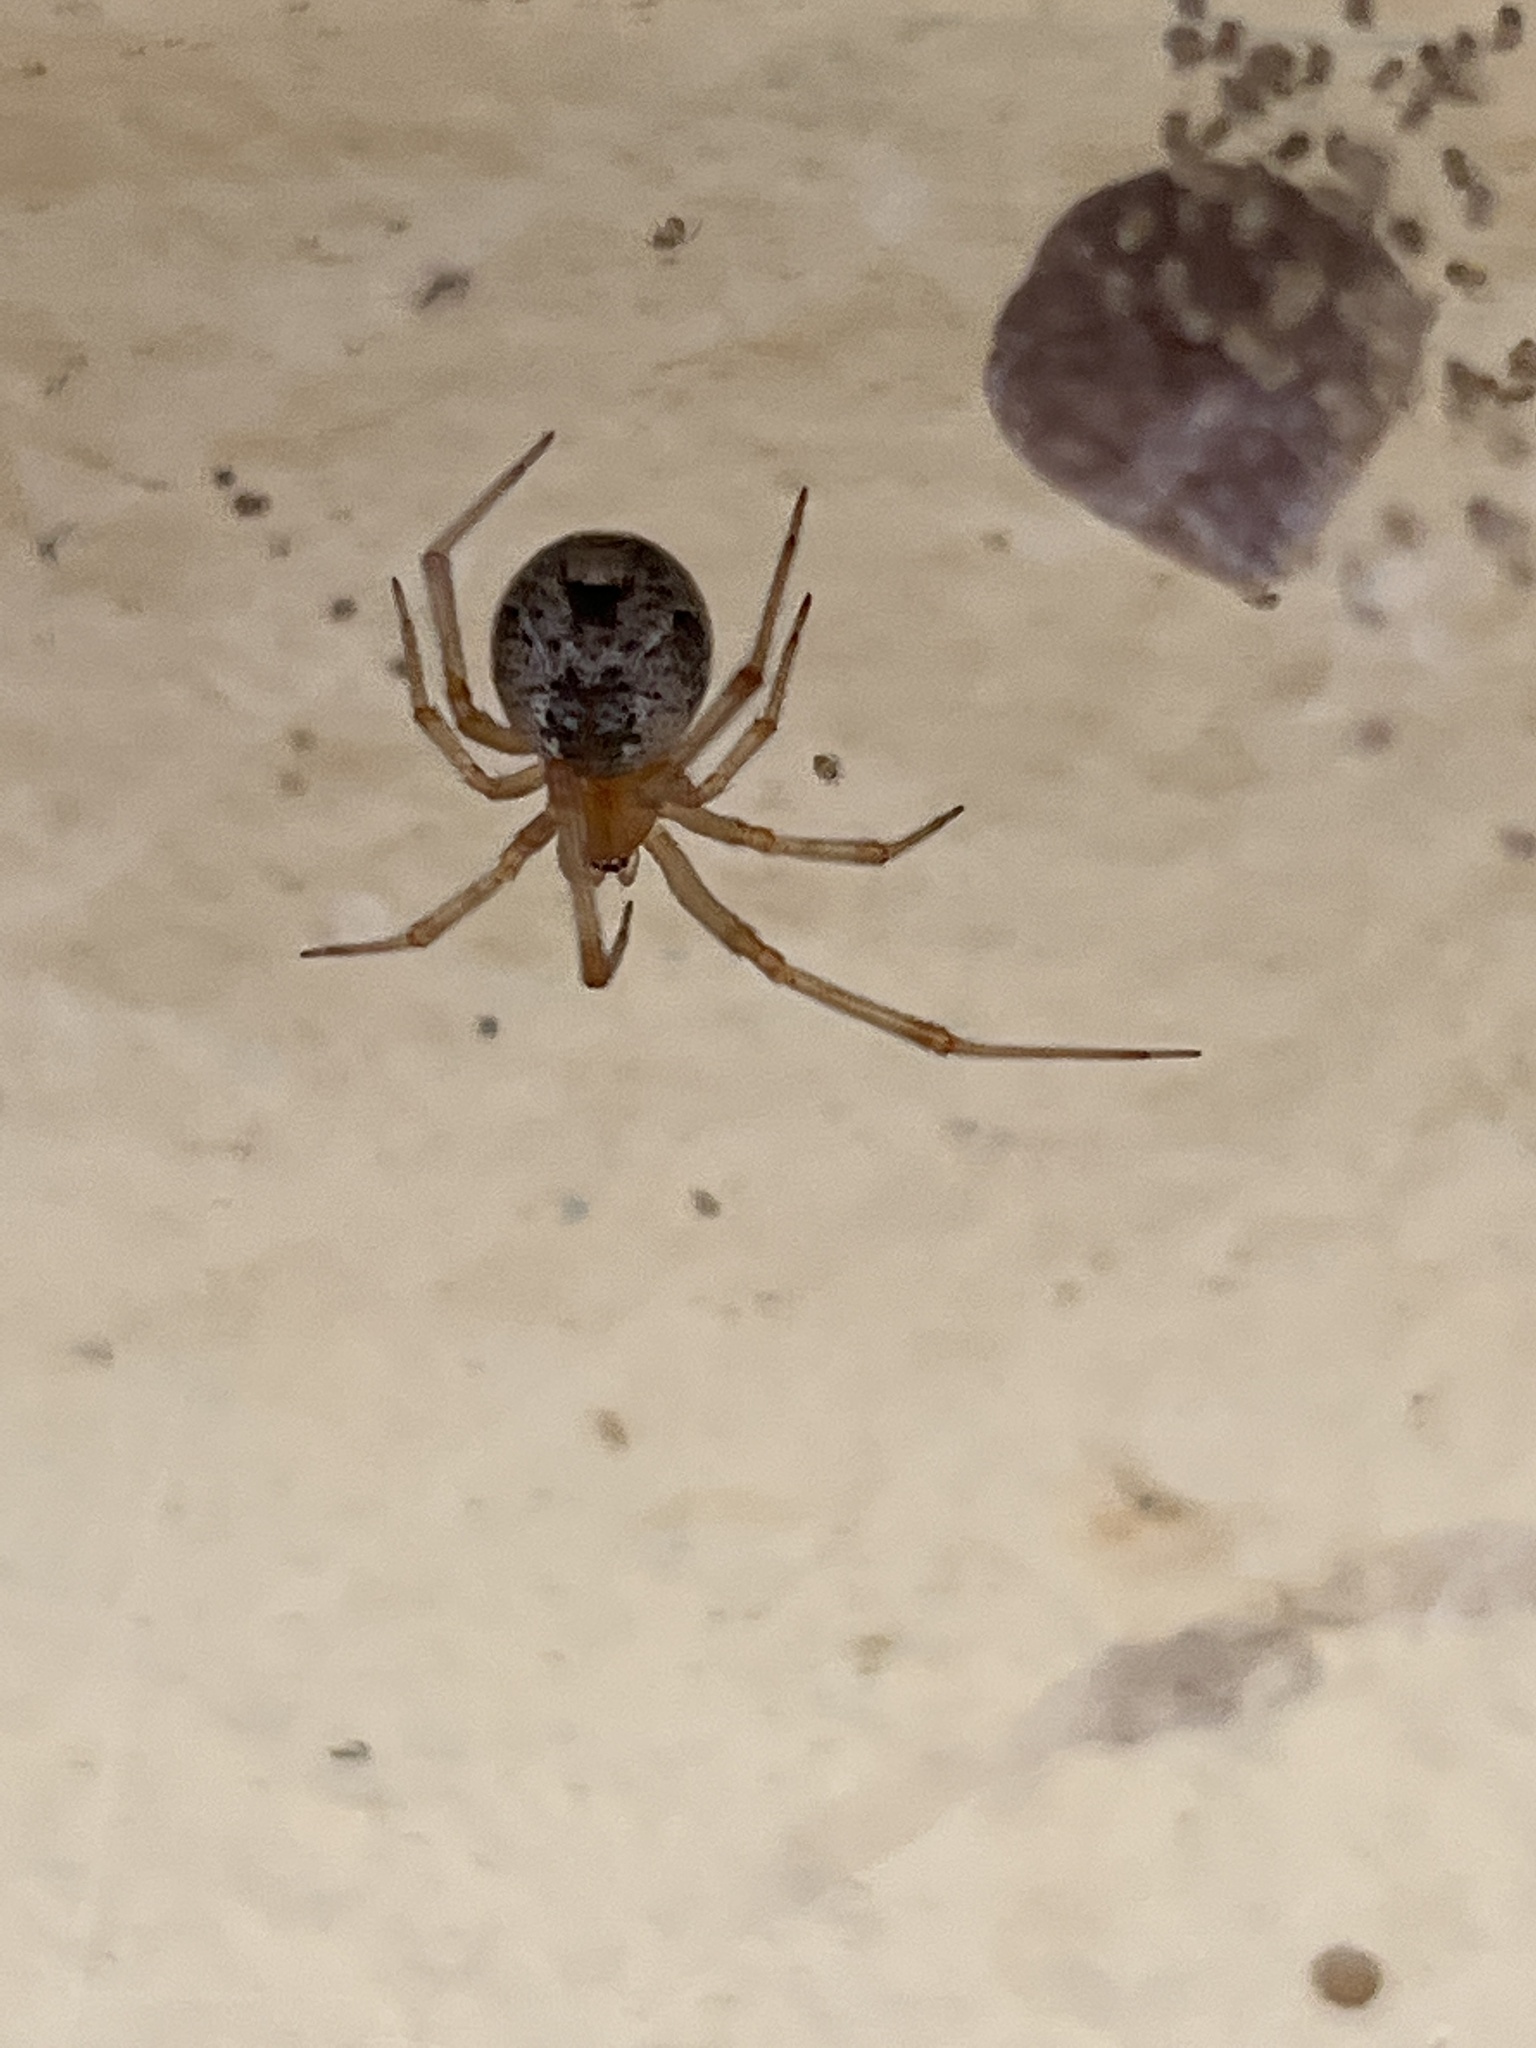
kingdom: Animalia
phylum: Arthropoda
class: Arachnida
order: Araneae
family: Theridiidae
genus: Parasteatoda
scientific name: Parasteatoda tepidariorum
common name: Common house spider
